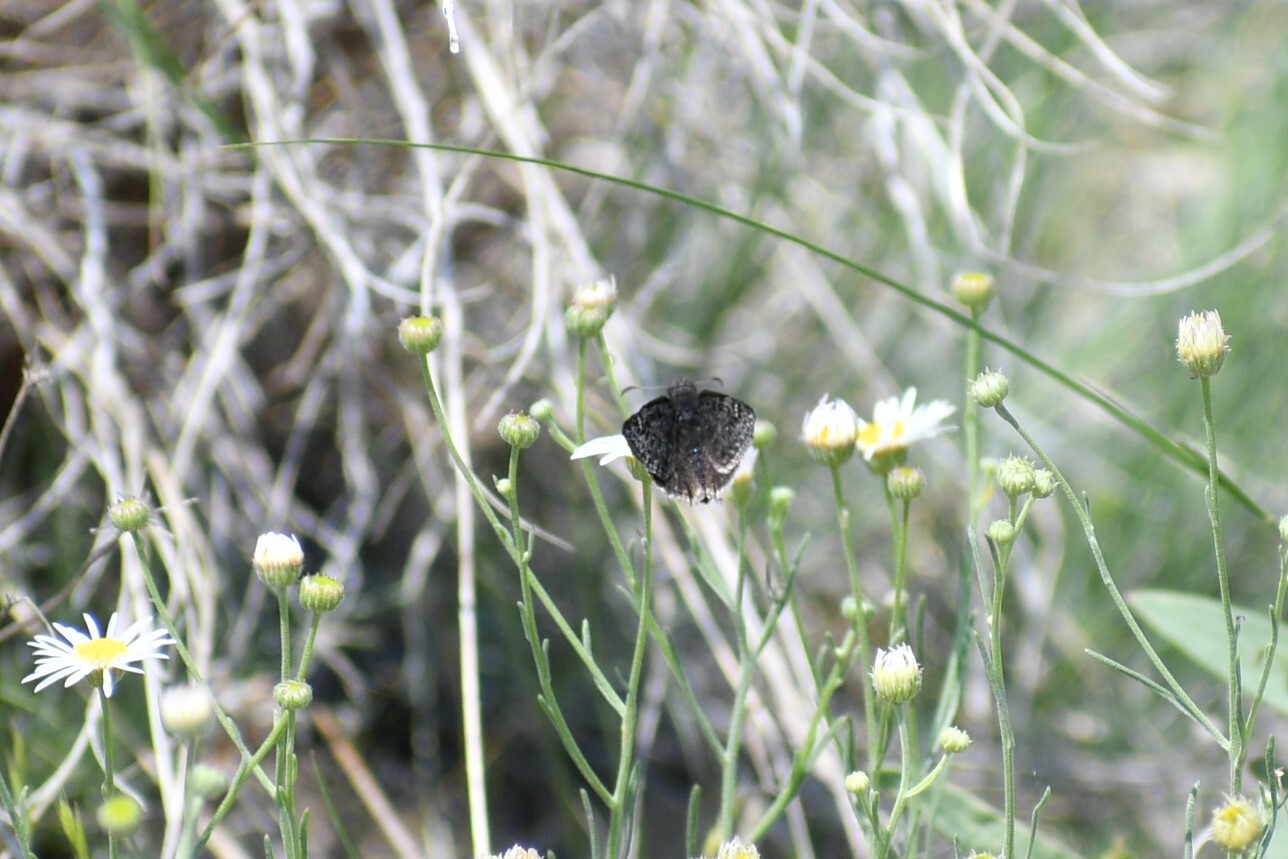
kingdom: Animalia
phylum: Arthropoda
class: Insecta
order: Lepidoptera
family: Hesperiidae
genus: Erynnis
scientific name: Erynnis persius
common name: Persius duskywing
